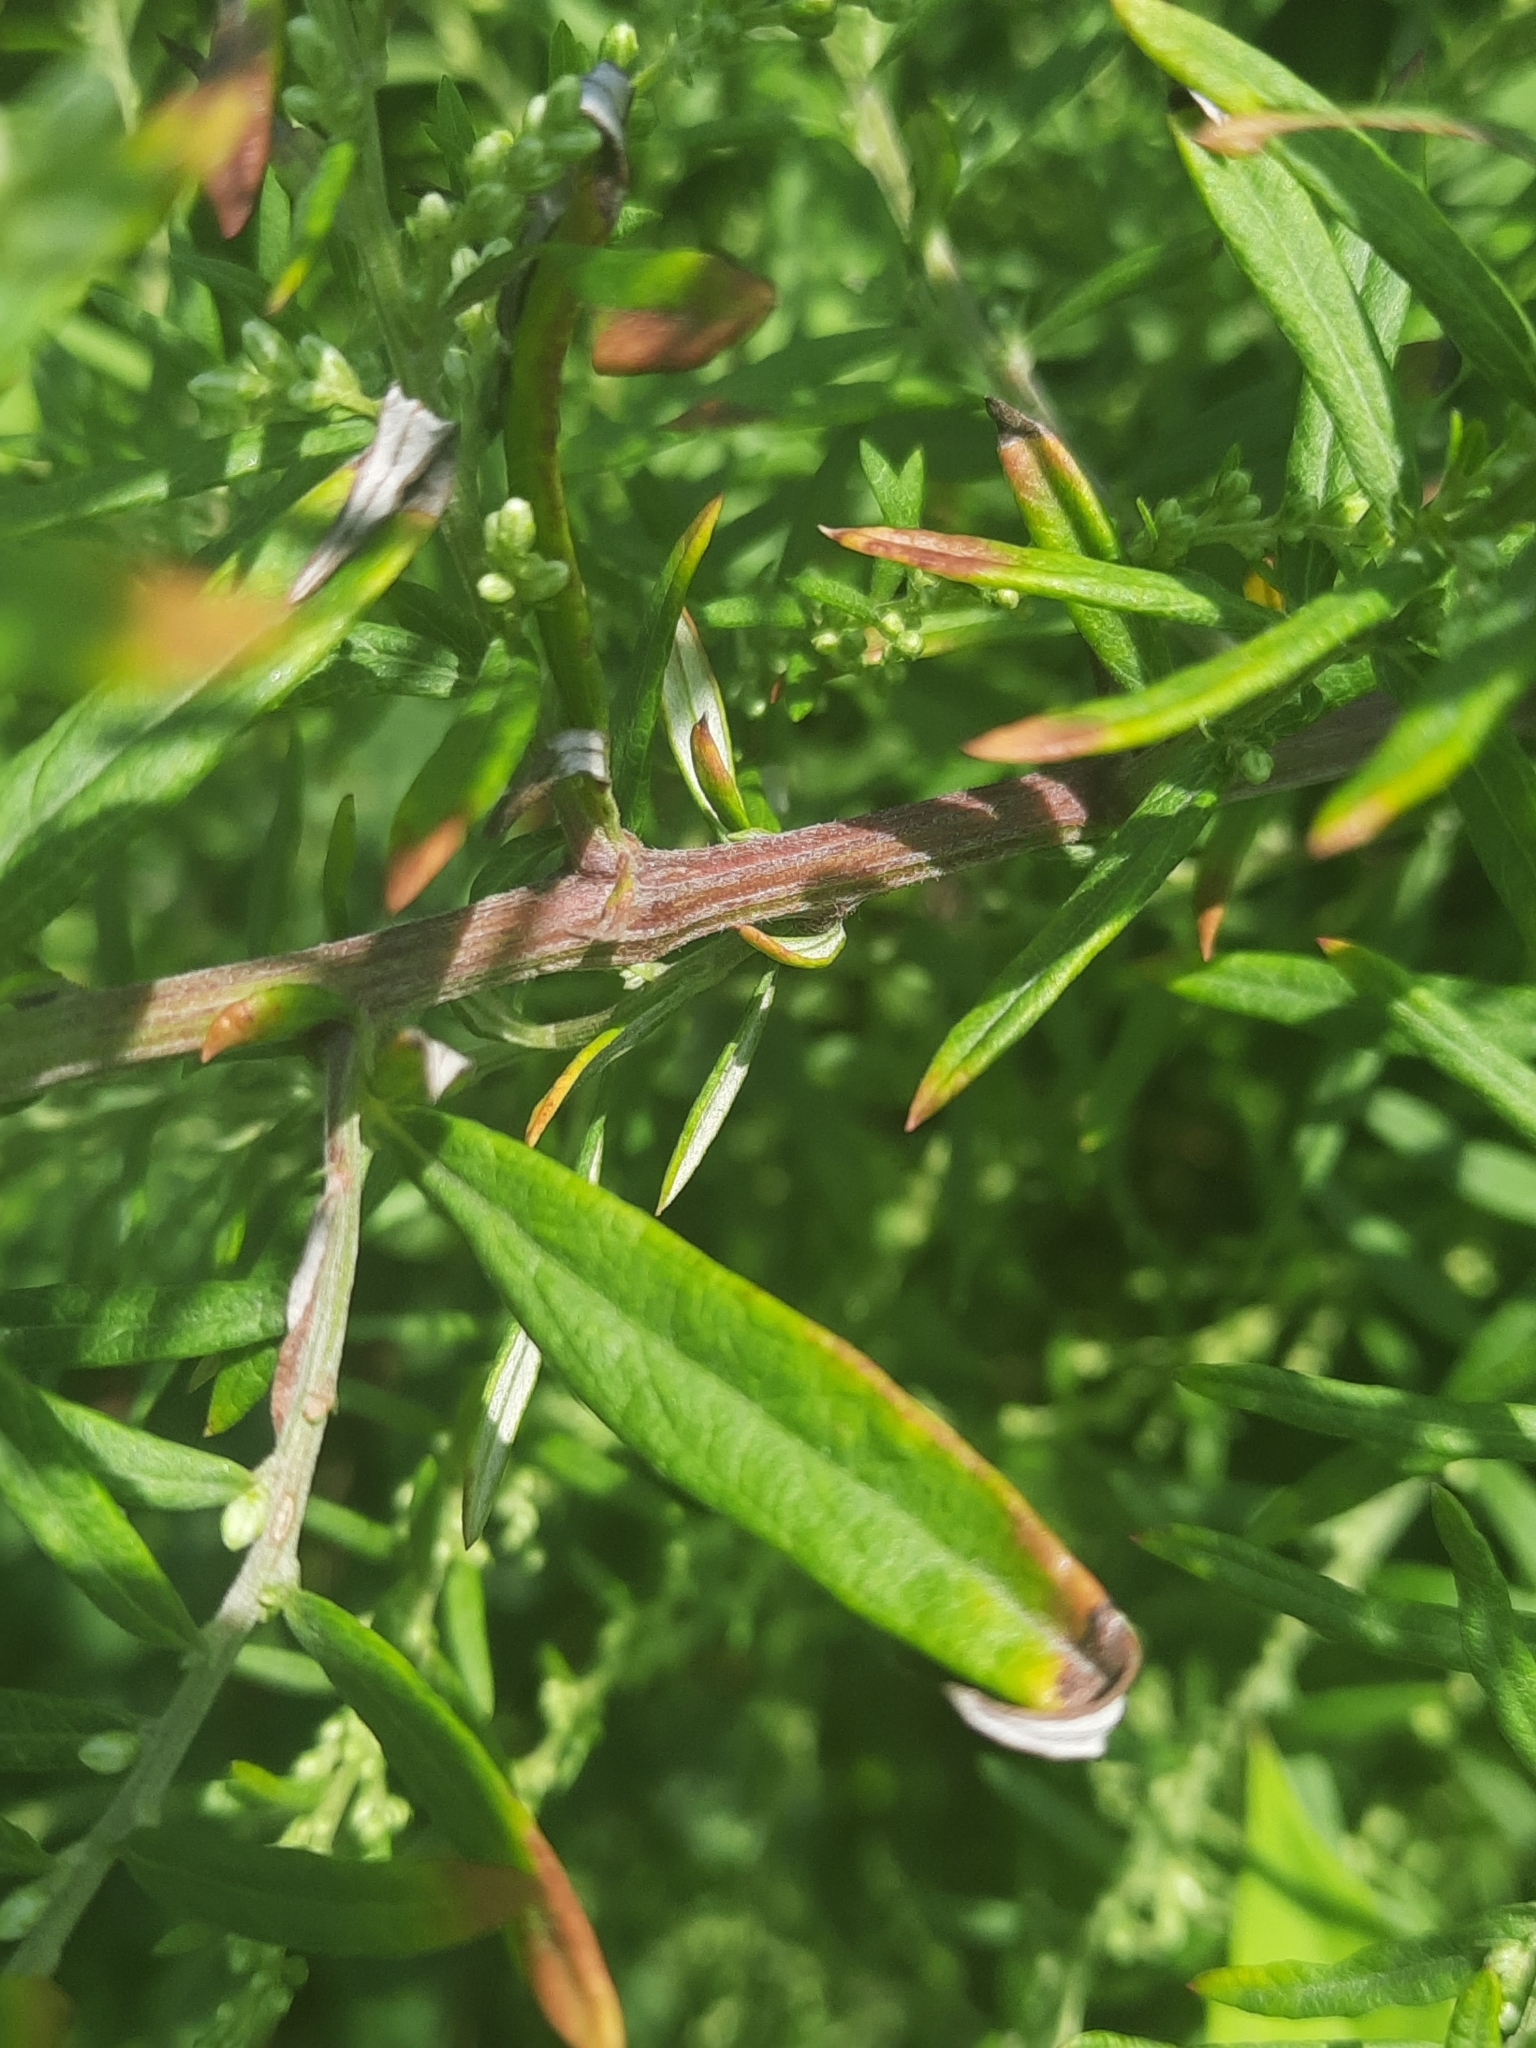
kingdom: Plantae
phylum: Tracheophyta
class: Magnoliopsida
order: Asterales
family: Asteraceae
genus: Artemisia
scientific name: Artemisia vulgaris
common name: Mugwort
